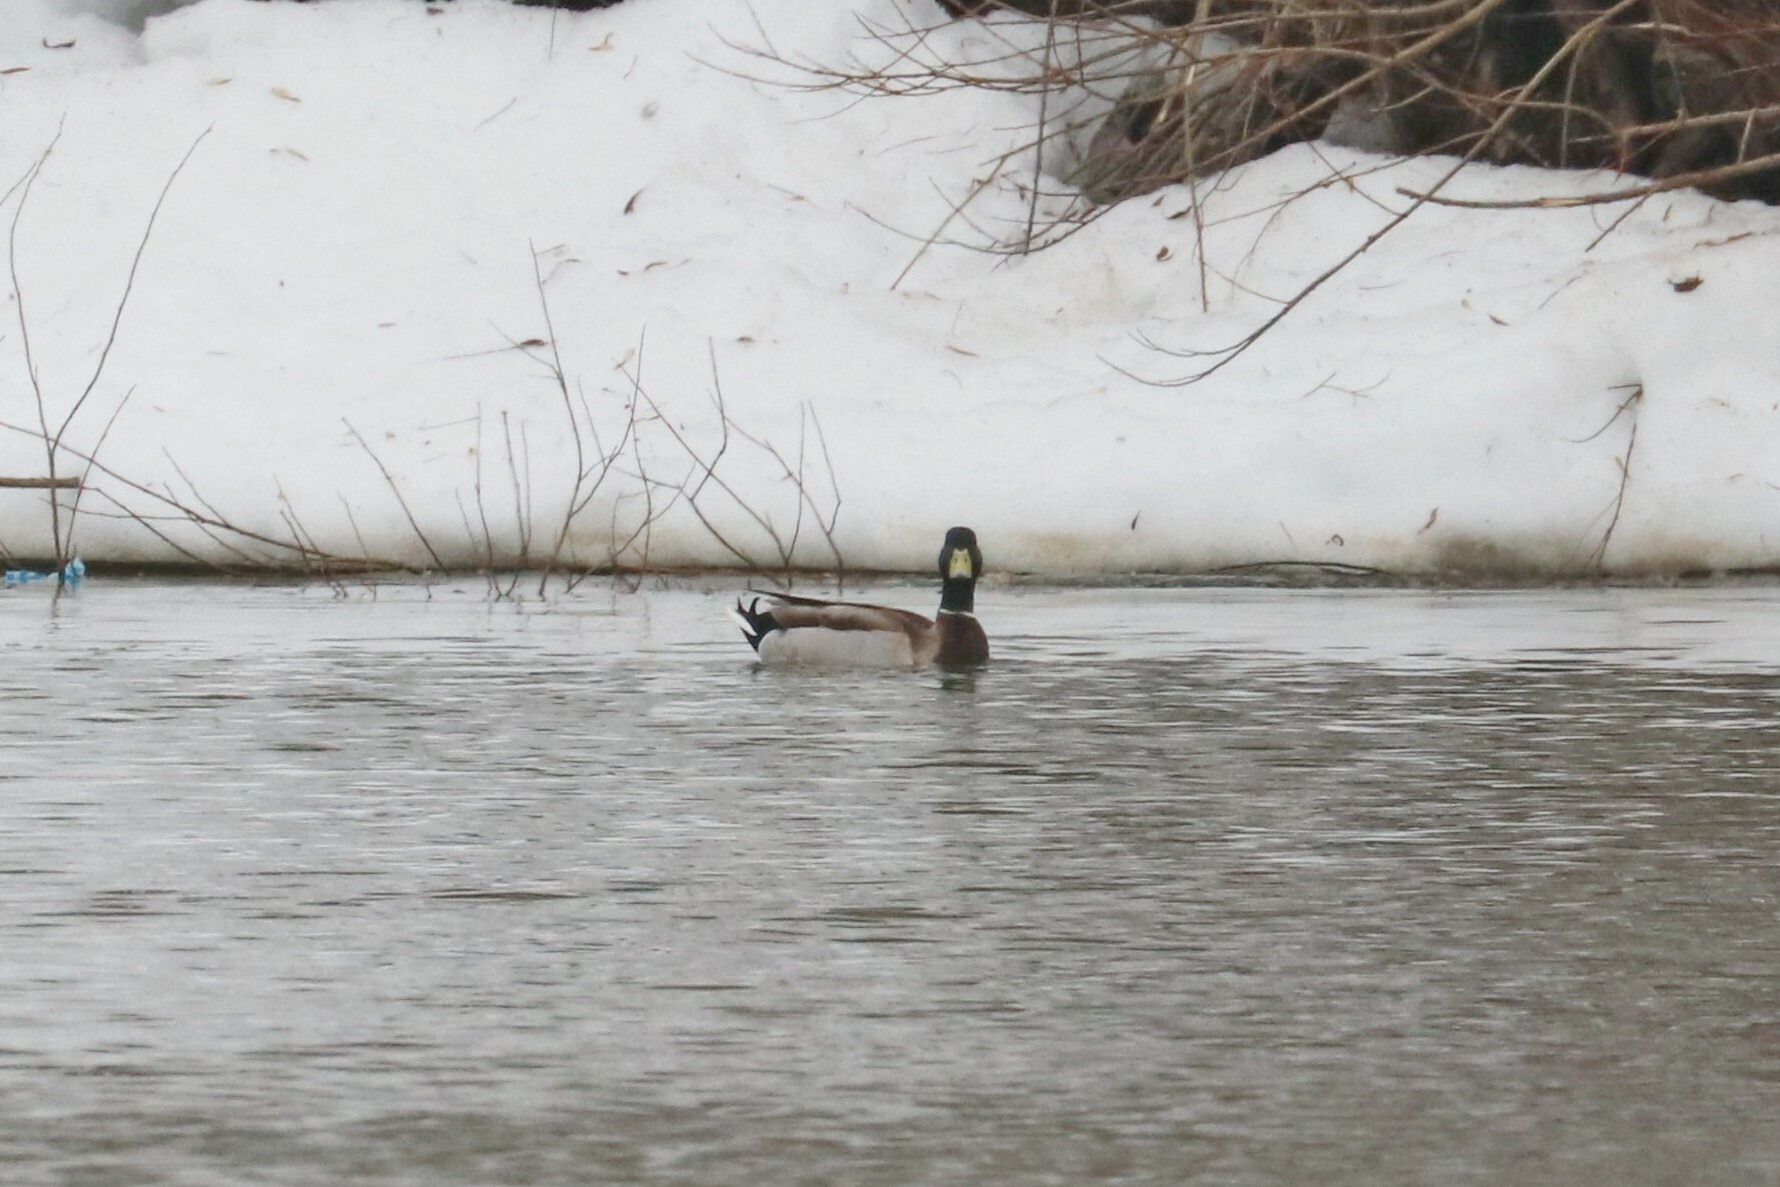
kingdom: Animalia
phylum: Chordata
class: Aves
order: Anseriformes
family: Anatidae
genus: Anas
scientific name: Anas platyrhynchos
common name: Mallard
